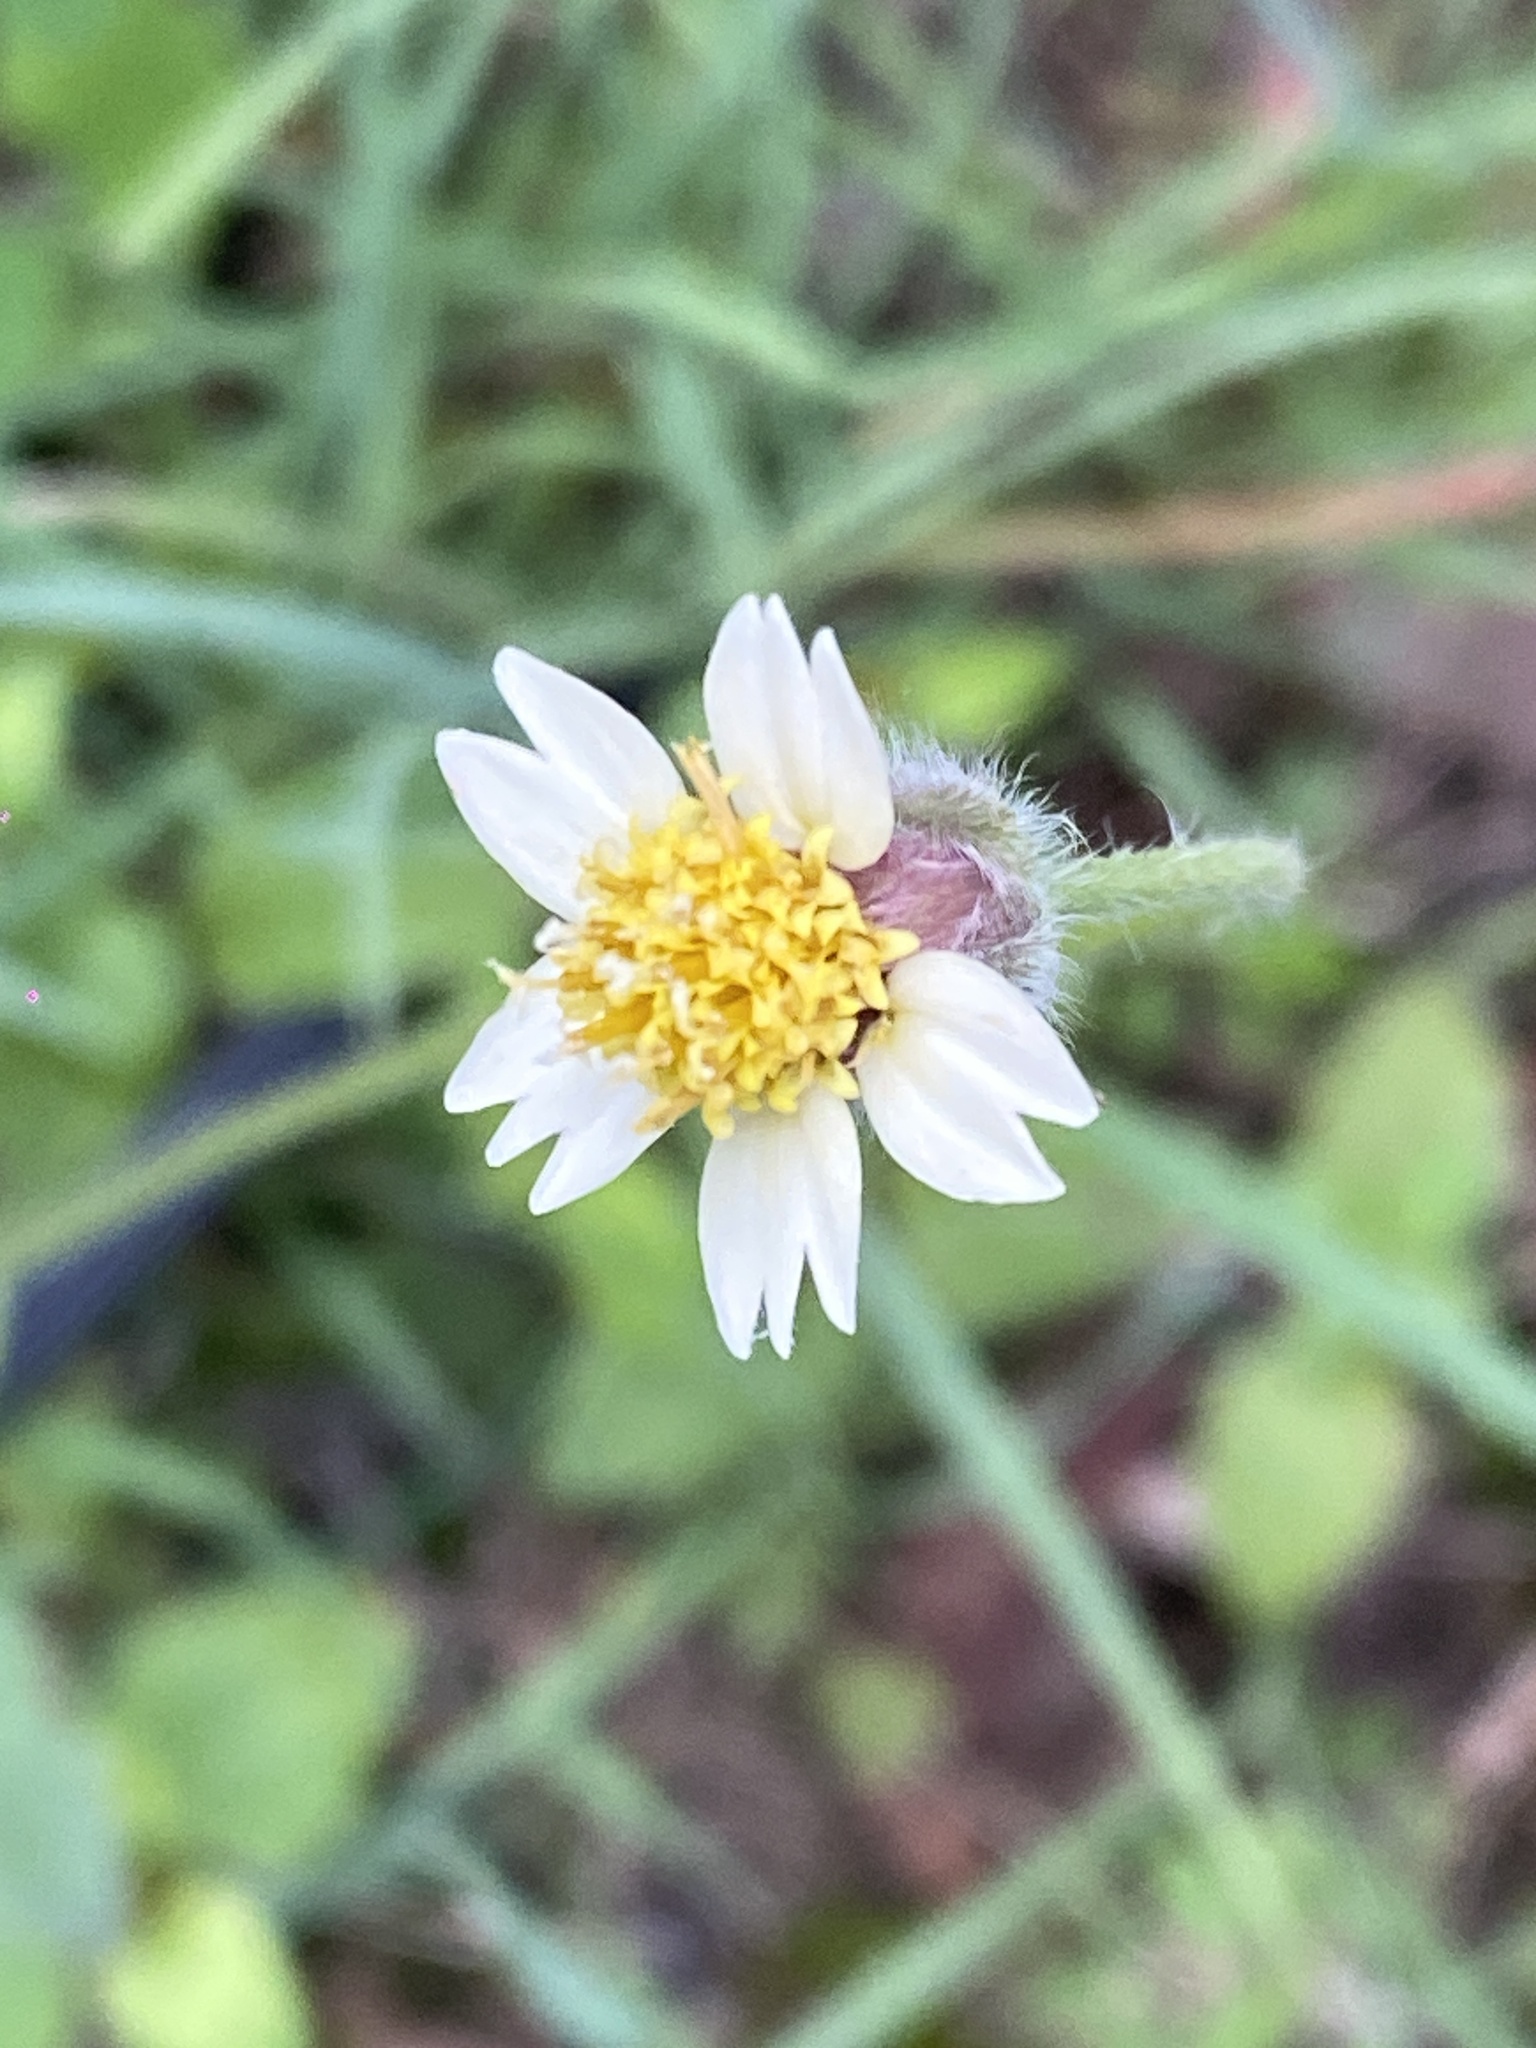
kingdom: Plantae
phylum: Tracheophyta
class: Magnoliopsida
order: Asterales
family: Asteraceae
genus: Tridax
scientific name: Tridax procumbens
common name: Coatbuttons
